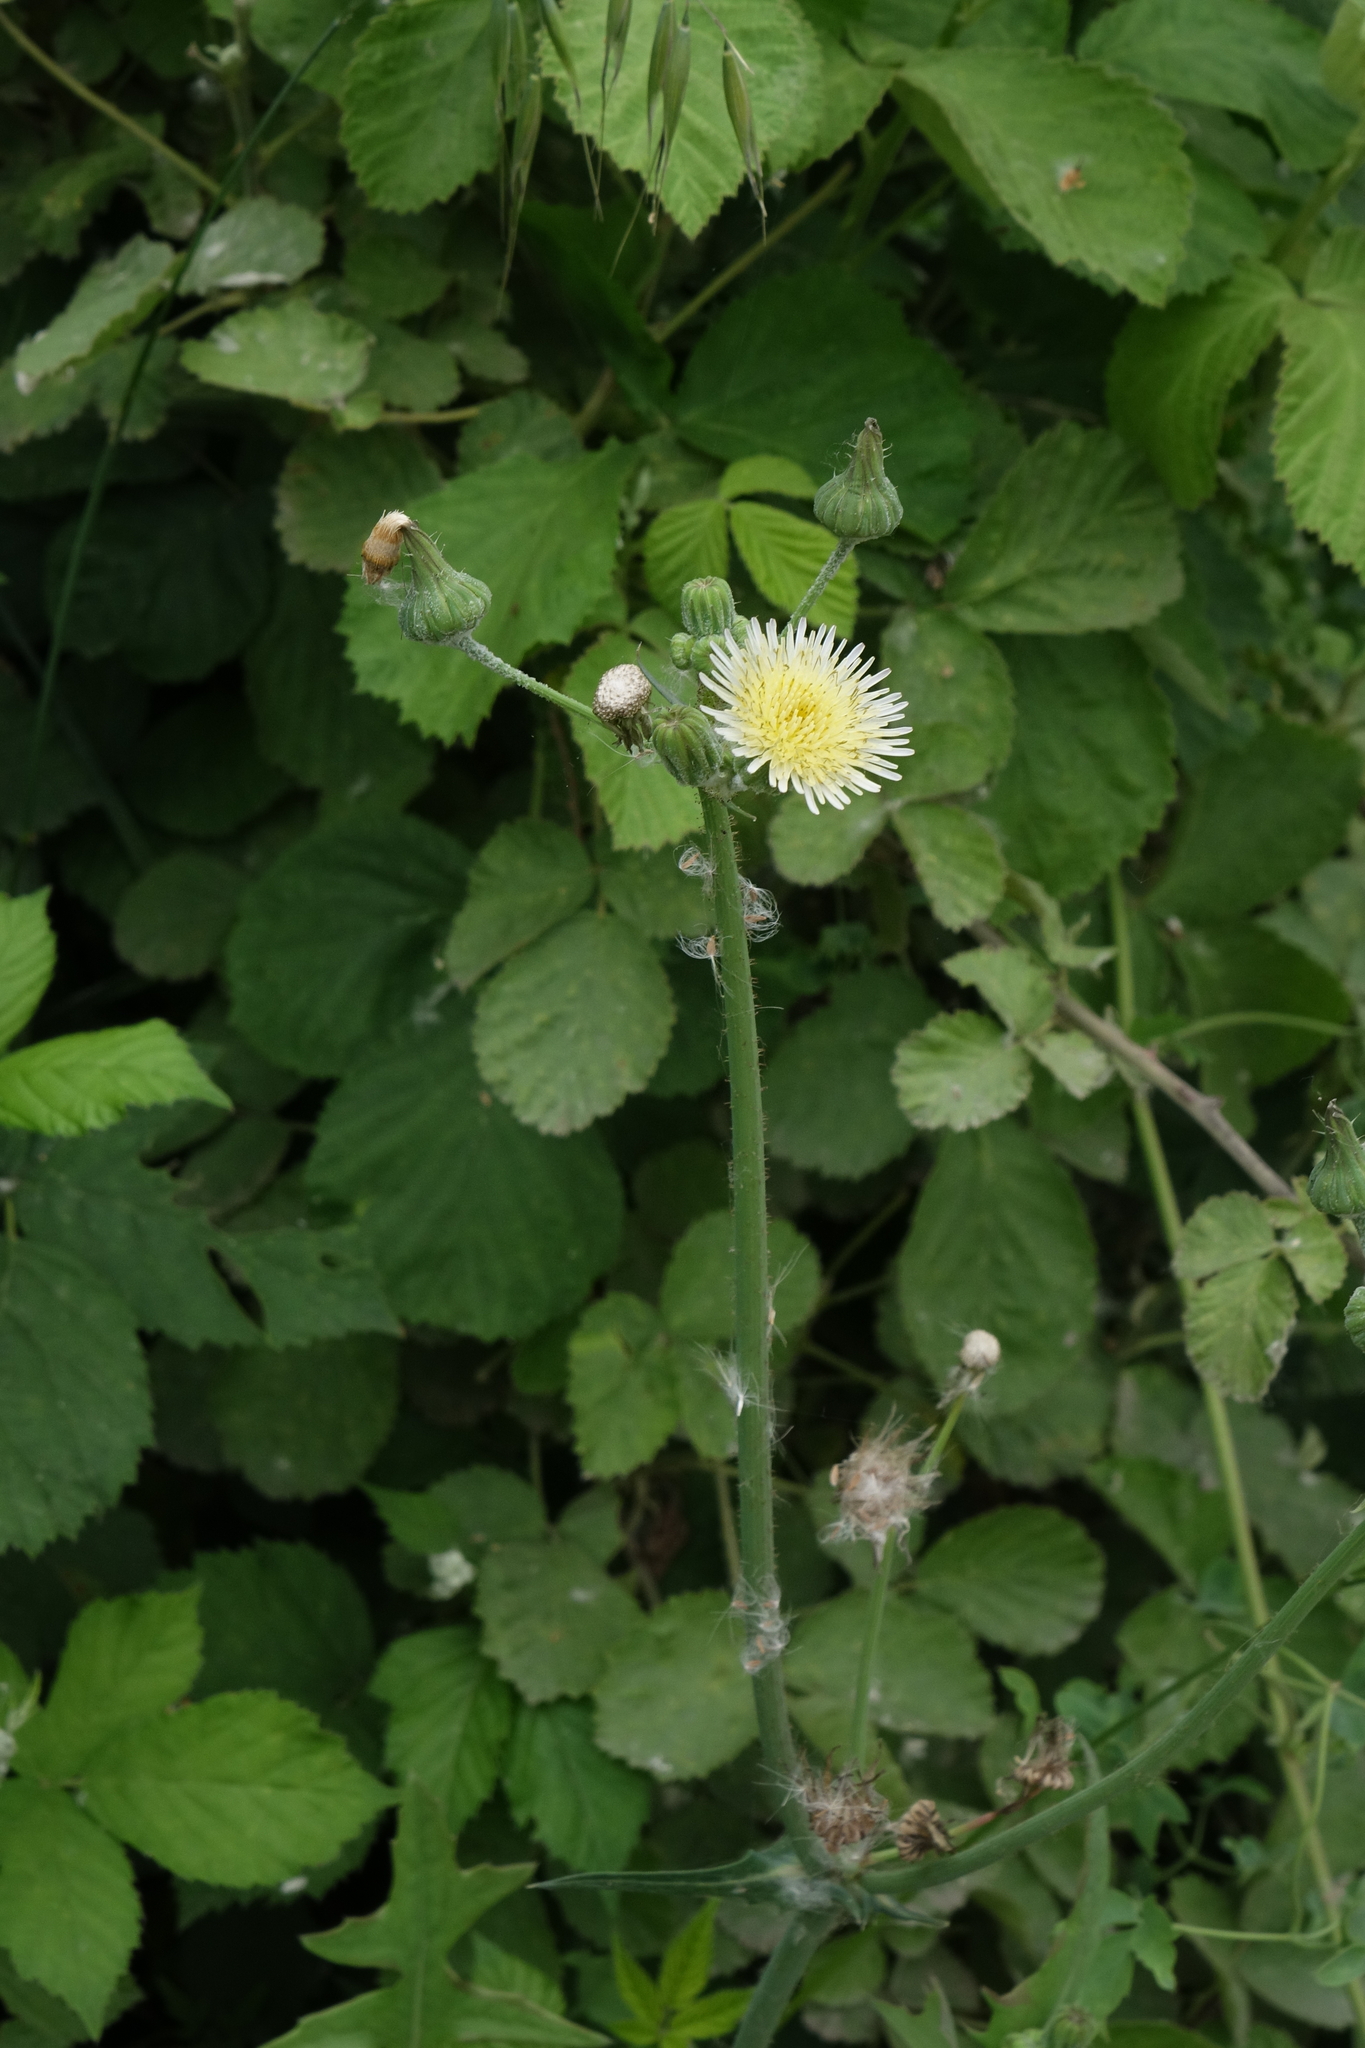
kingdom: Plantae
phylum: Tracheophyta
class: Magnoliopsida
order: Asterales
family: Asteraceae
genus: Sonchus
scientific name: Sonchus oleraceus
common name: Common sowthistle
